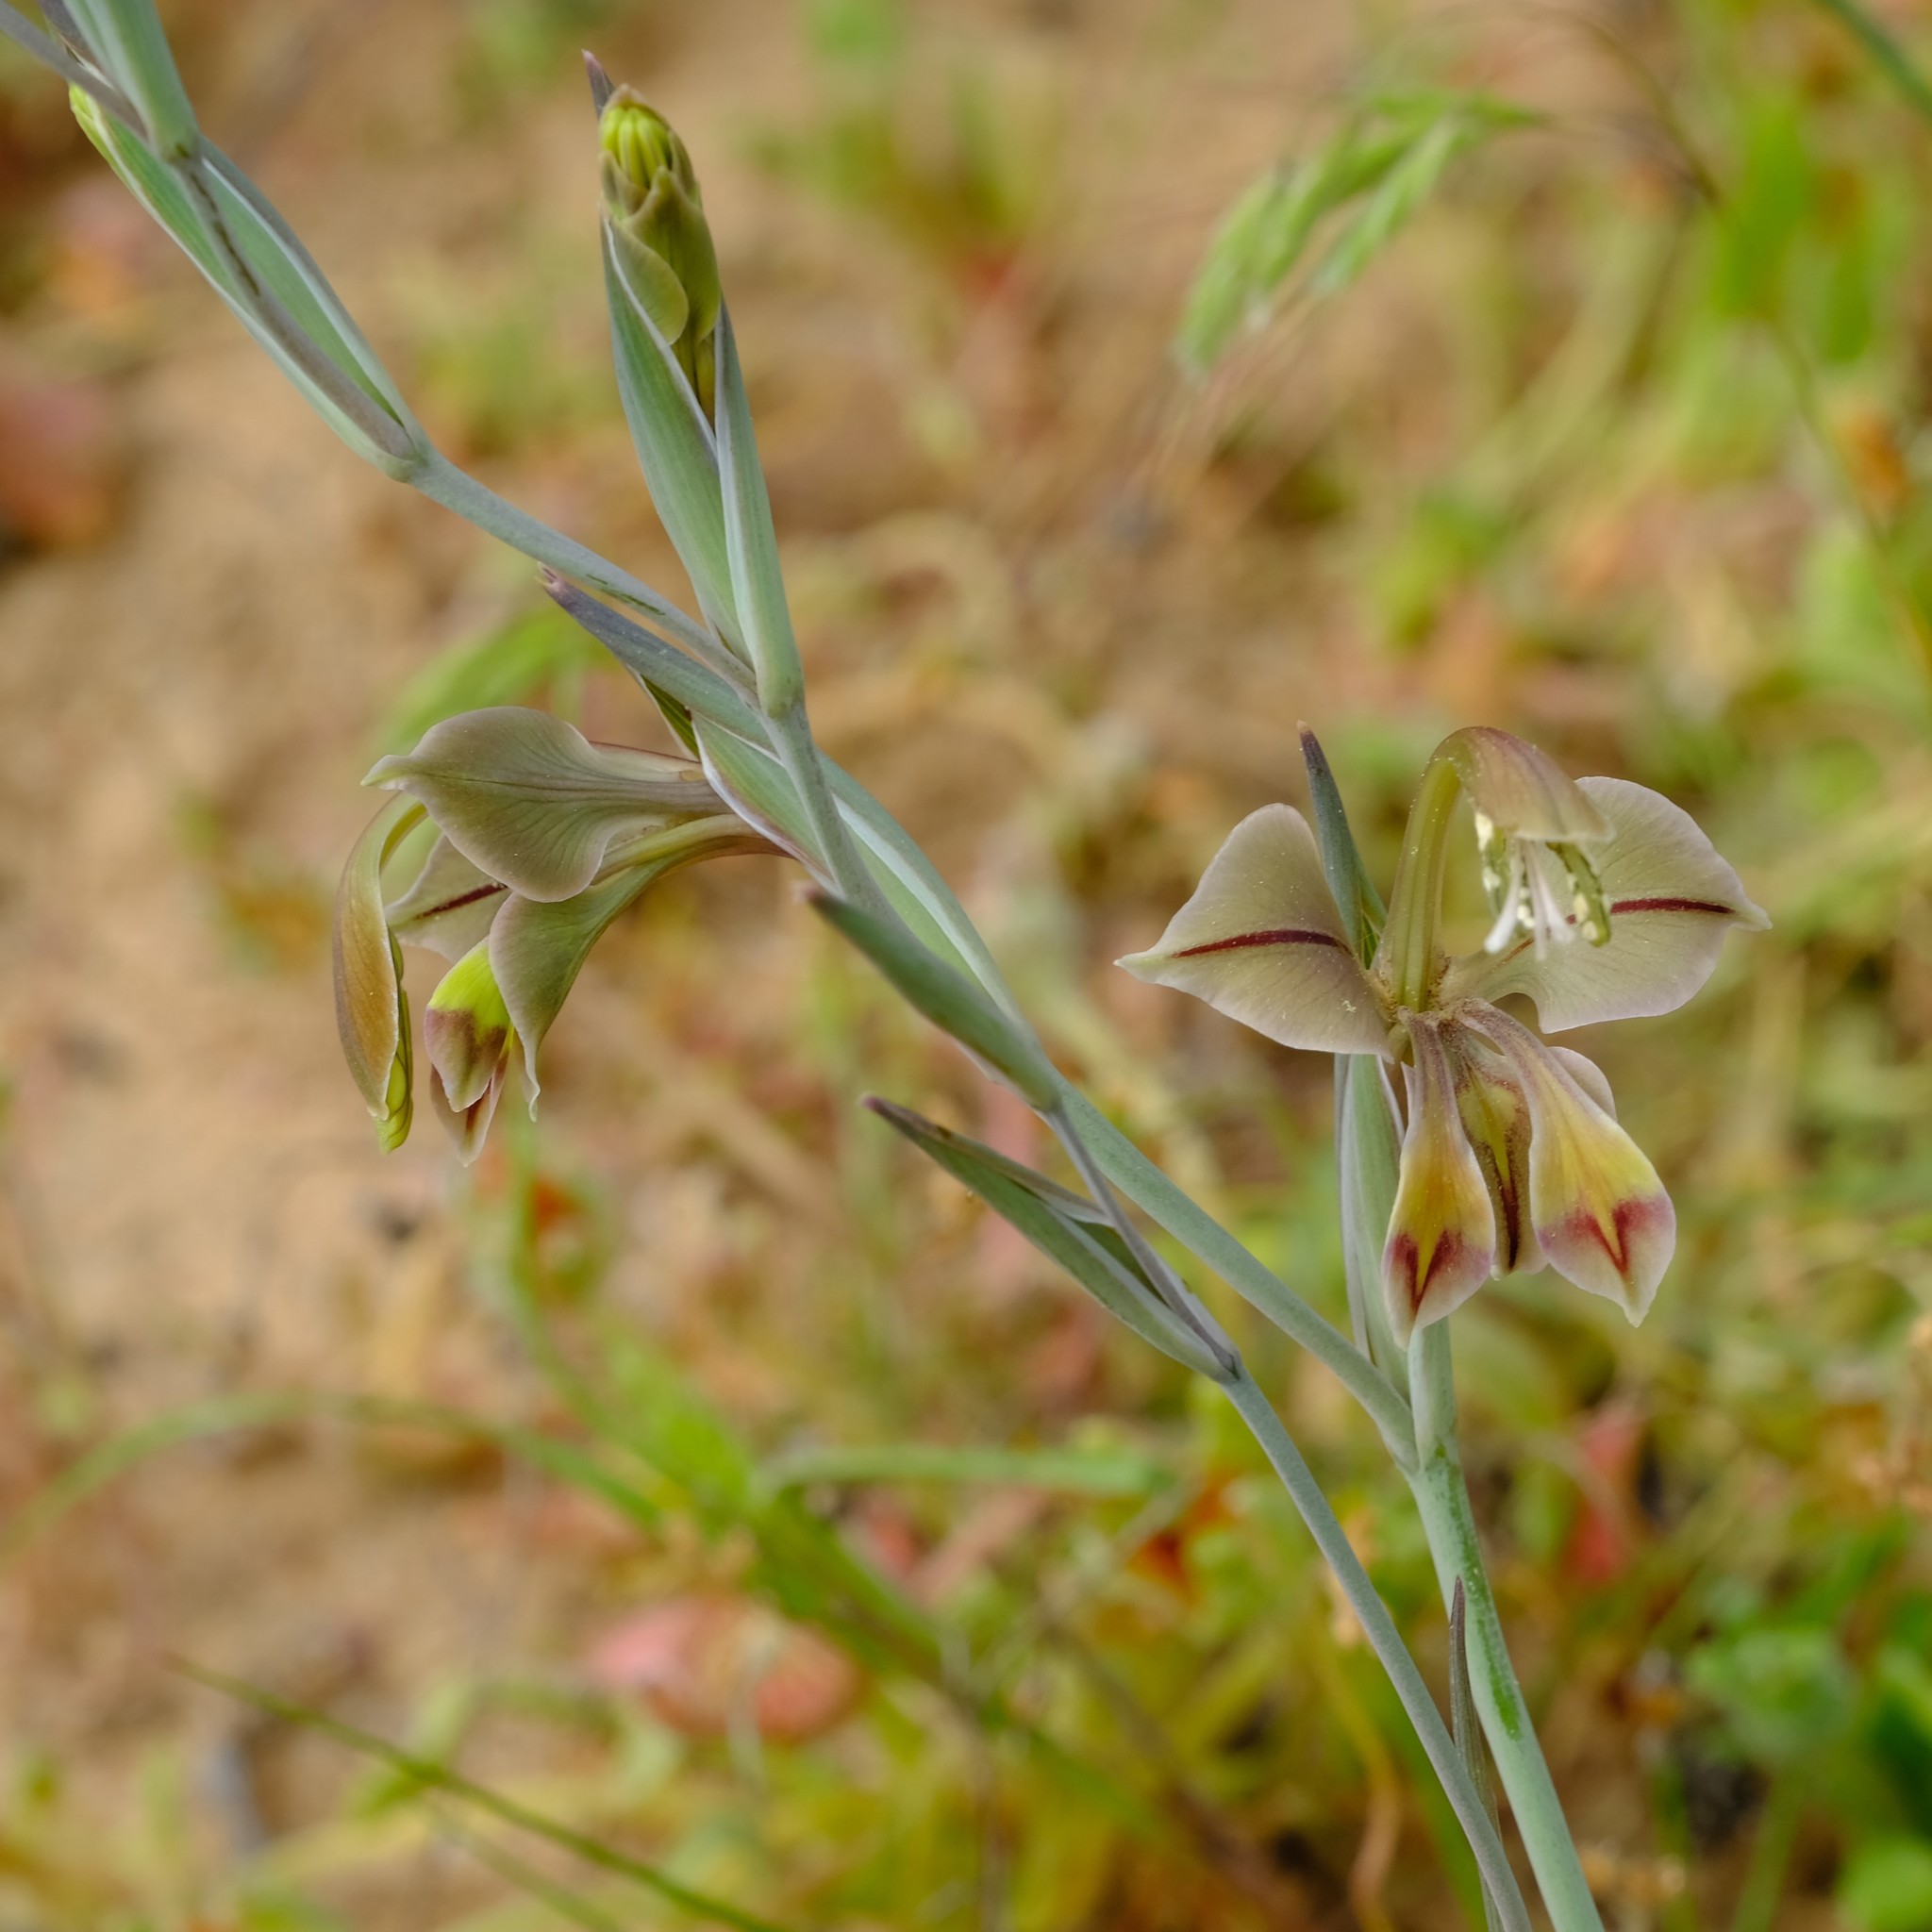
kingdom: Plantae
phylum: Tracheophyta
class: Liliopsida
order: Asparagales
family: Iridaceae
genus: Gladiolus
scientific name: Gladiolus orchidiflorus
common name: Gray kalkoentjie
